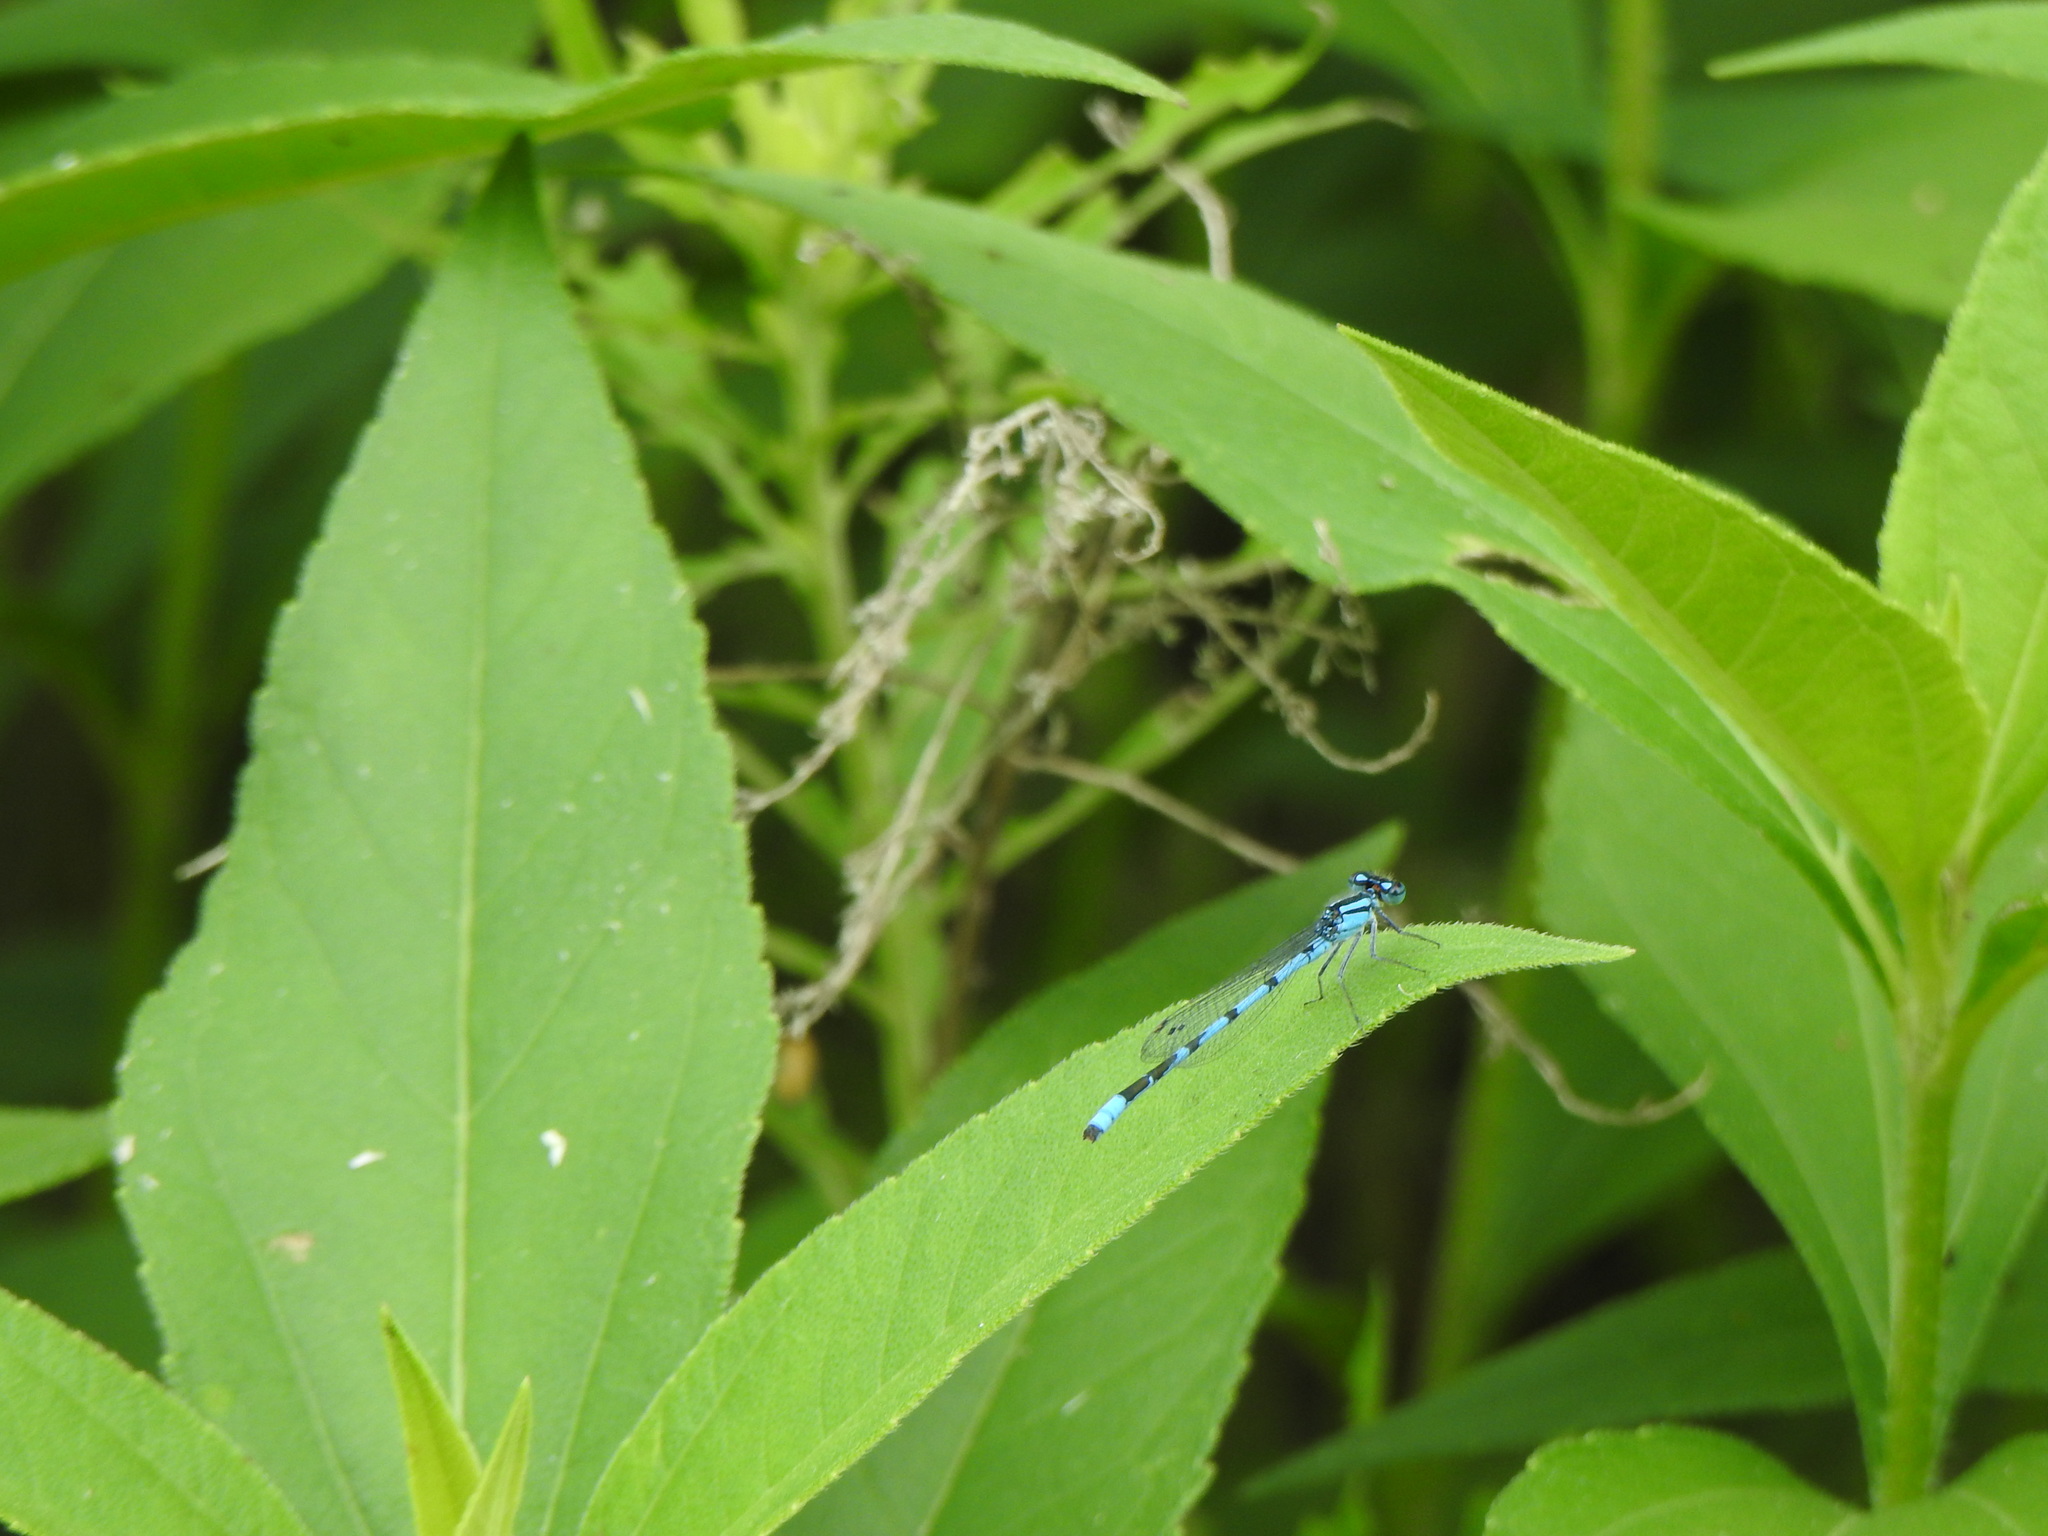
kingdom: Animalia
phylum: Arthropoda
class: Insecta
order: Odonata
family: Coenagrionidae
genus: Enallagma
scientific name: Enallagma
